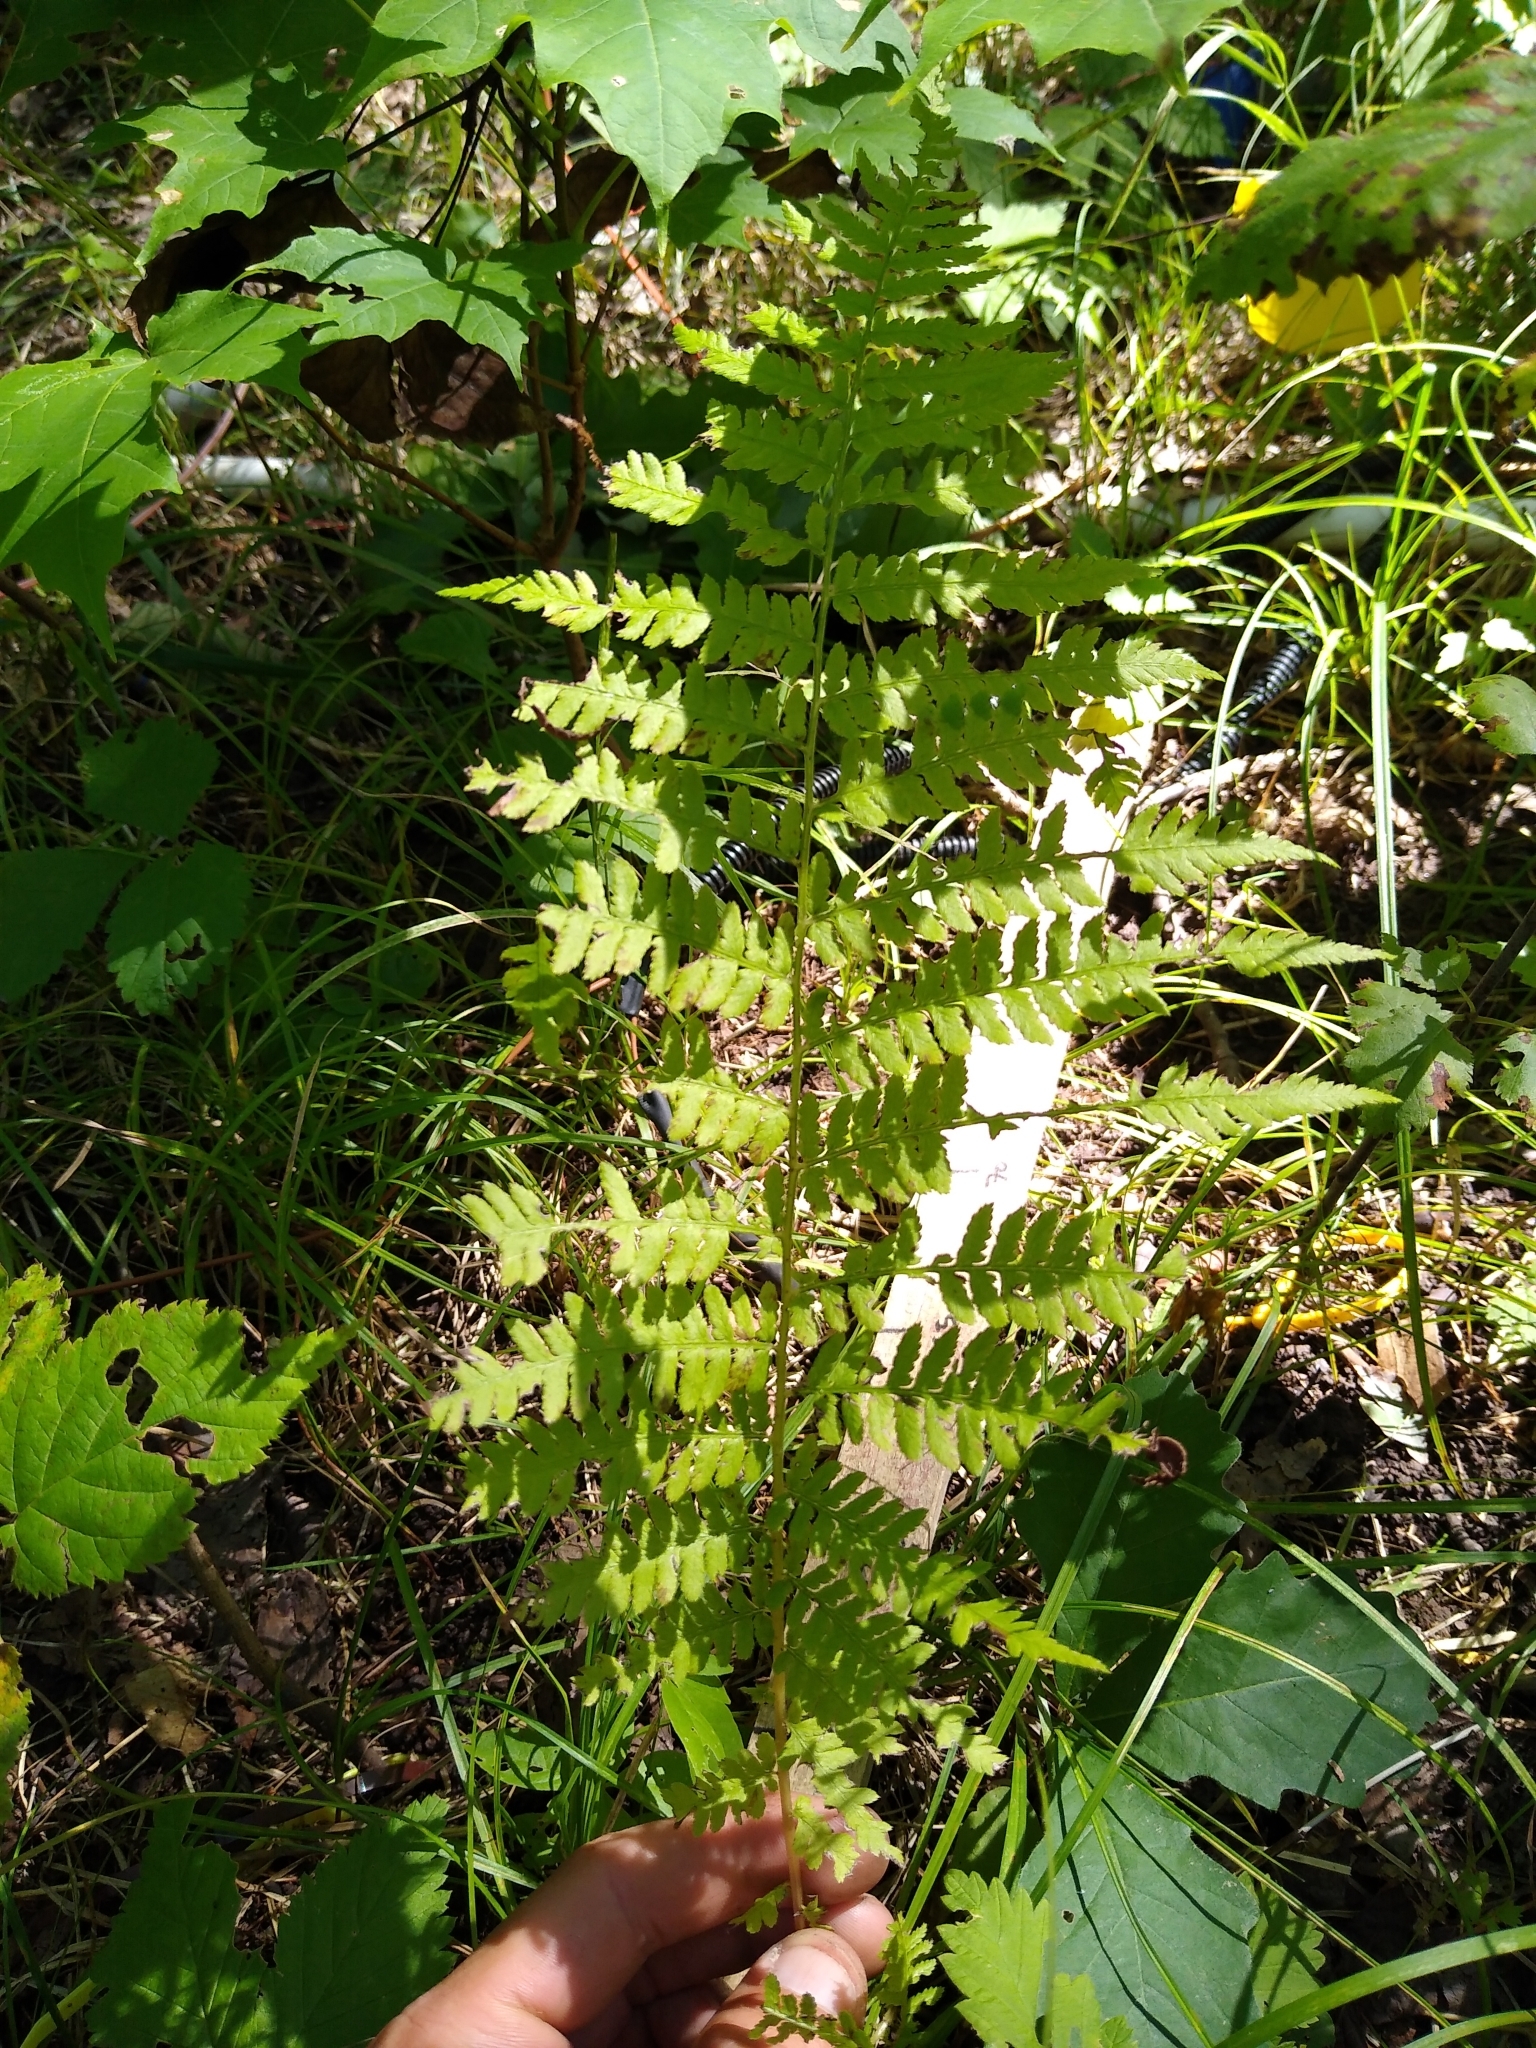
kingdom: Plantae
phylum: Tracheophyta
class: Polypodiopsida
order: Polypodiales
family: Athyriaceae
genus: Athyrium
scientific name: Athyrium angustum
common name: Northern lady fern
